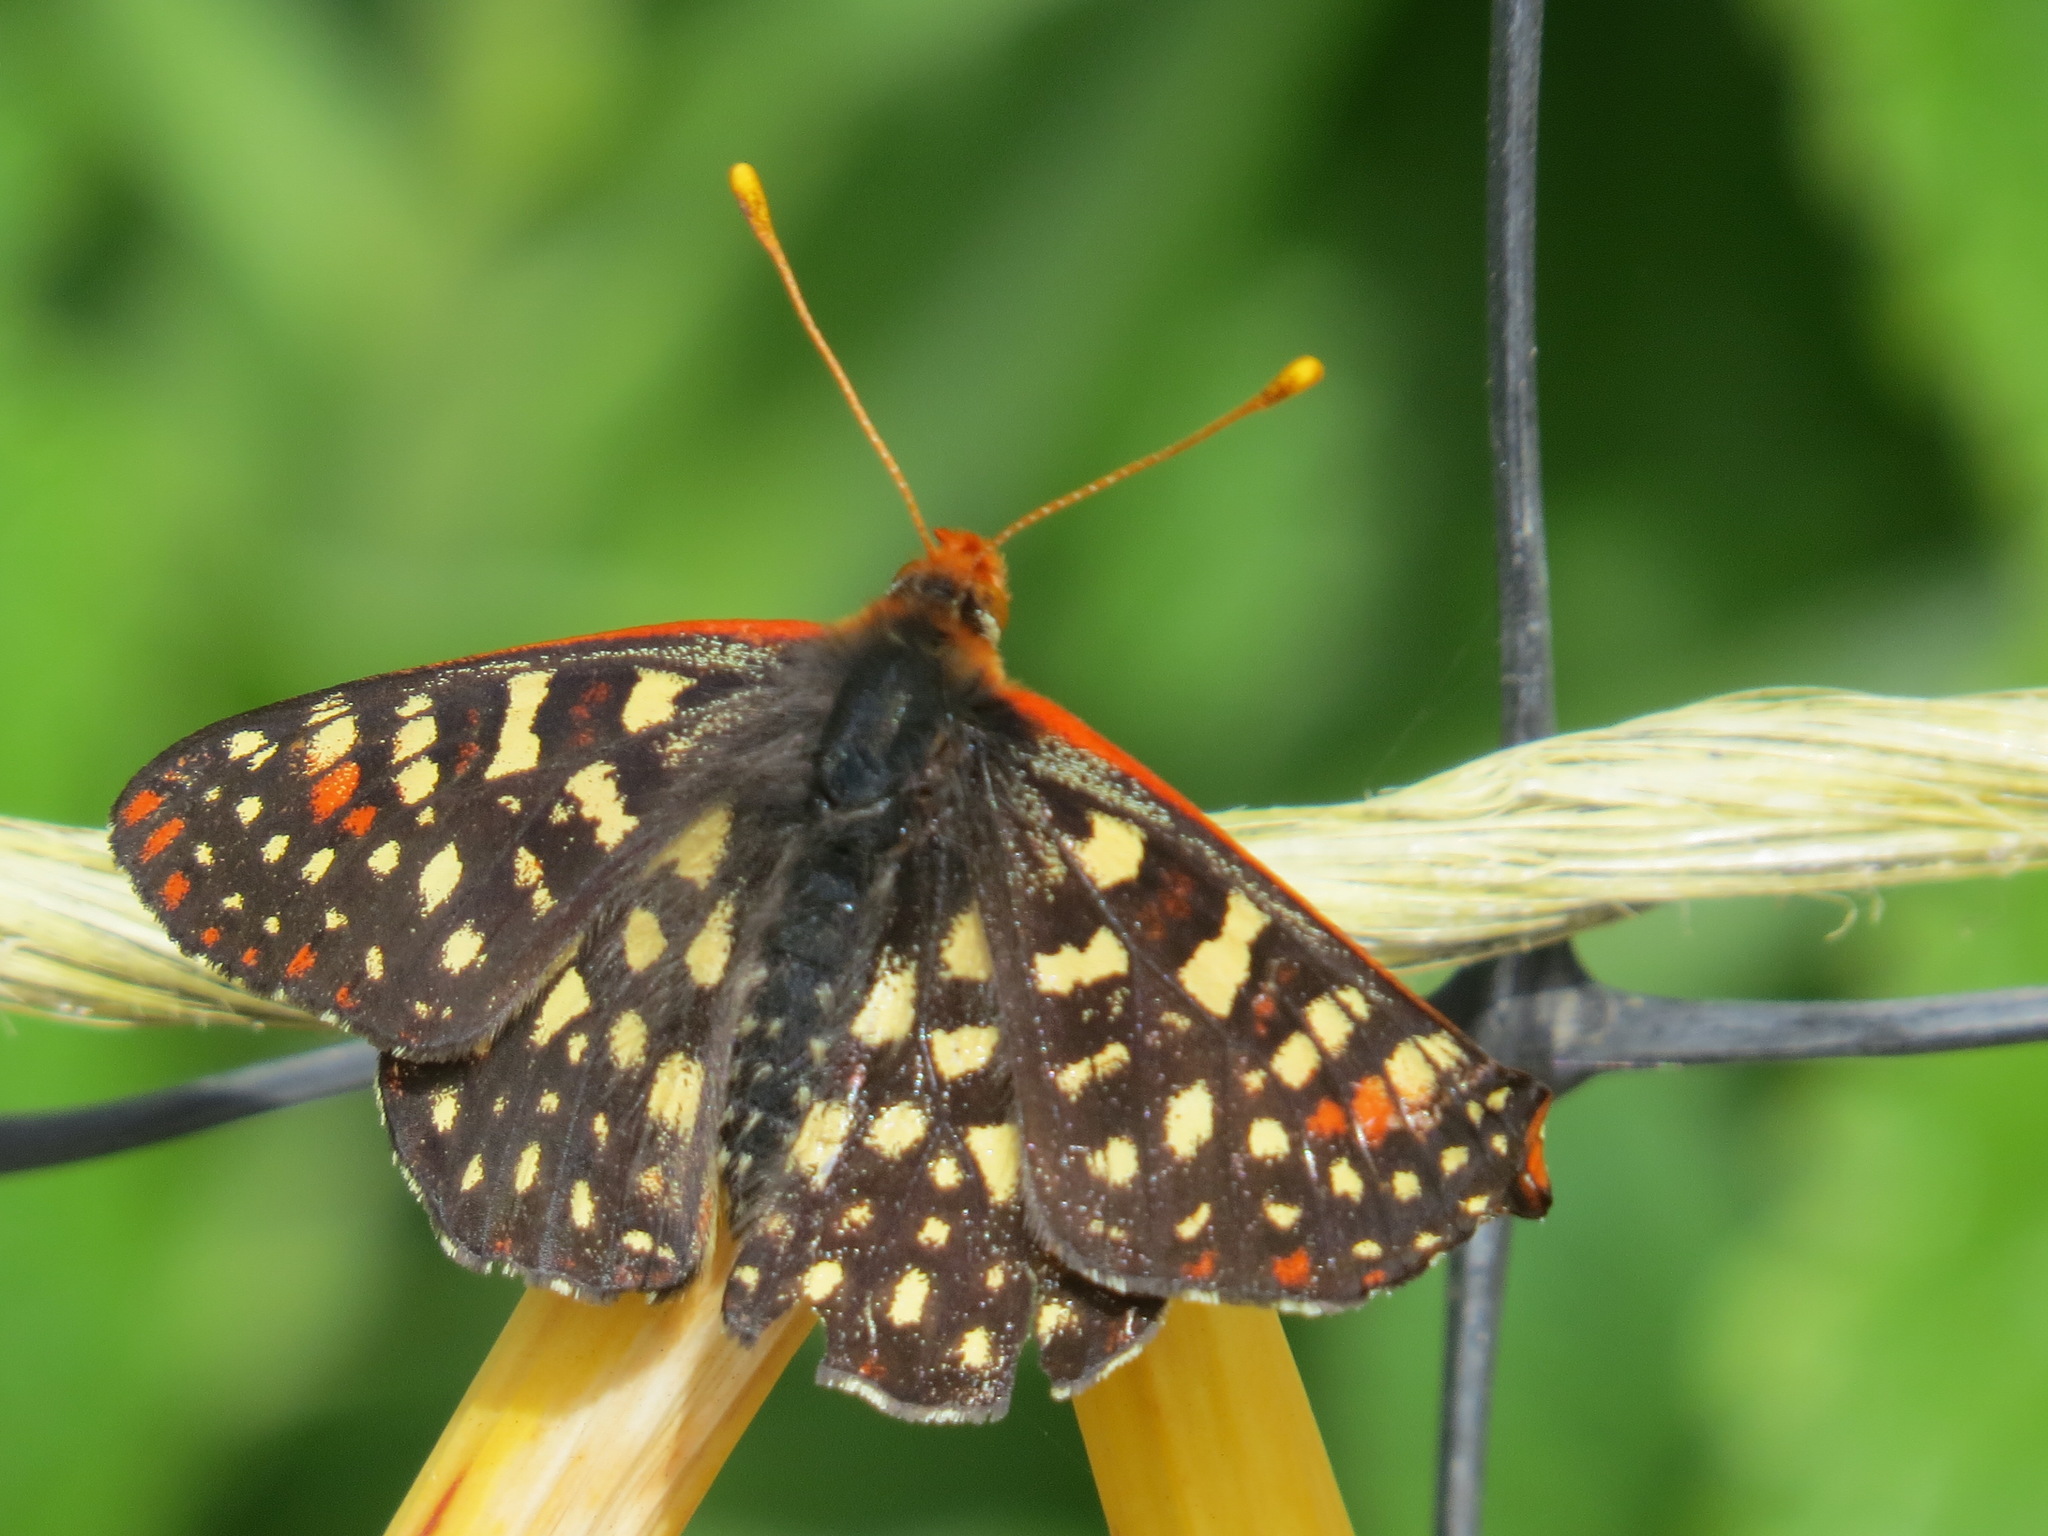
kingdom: Animalia
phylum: Arthropoda
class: Insecta
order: Lepidoptera
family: Nymphalidae
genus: Occidryas
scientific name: Occidryas chalcedona
